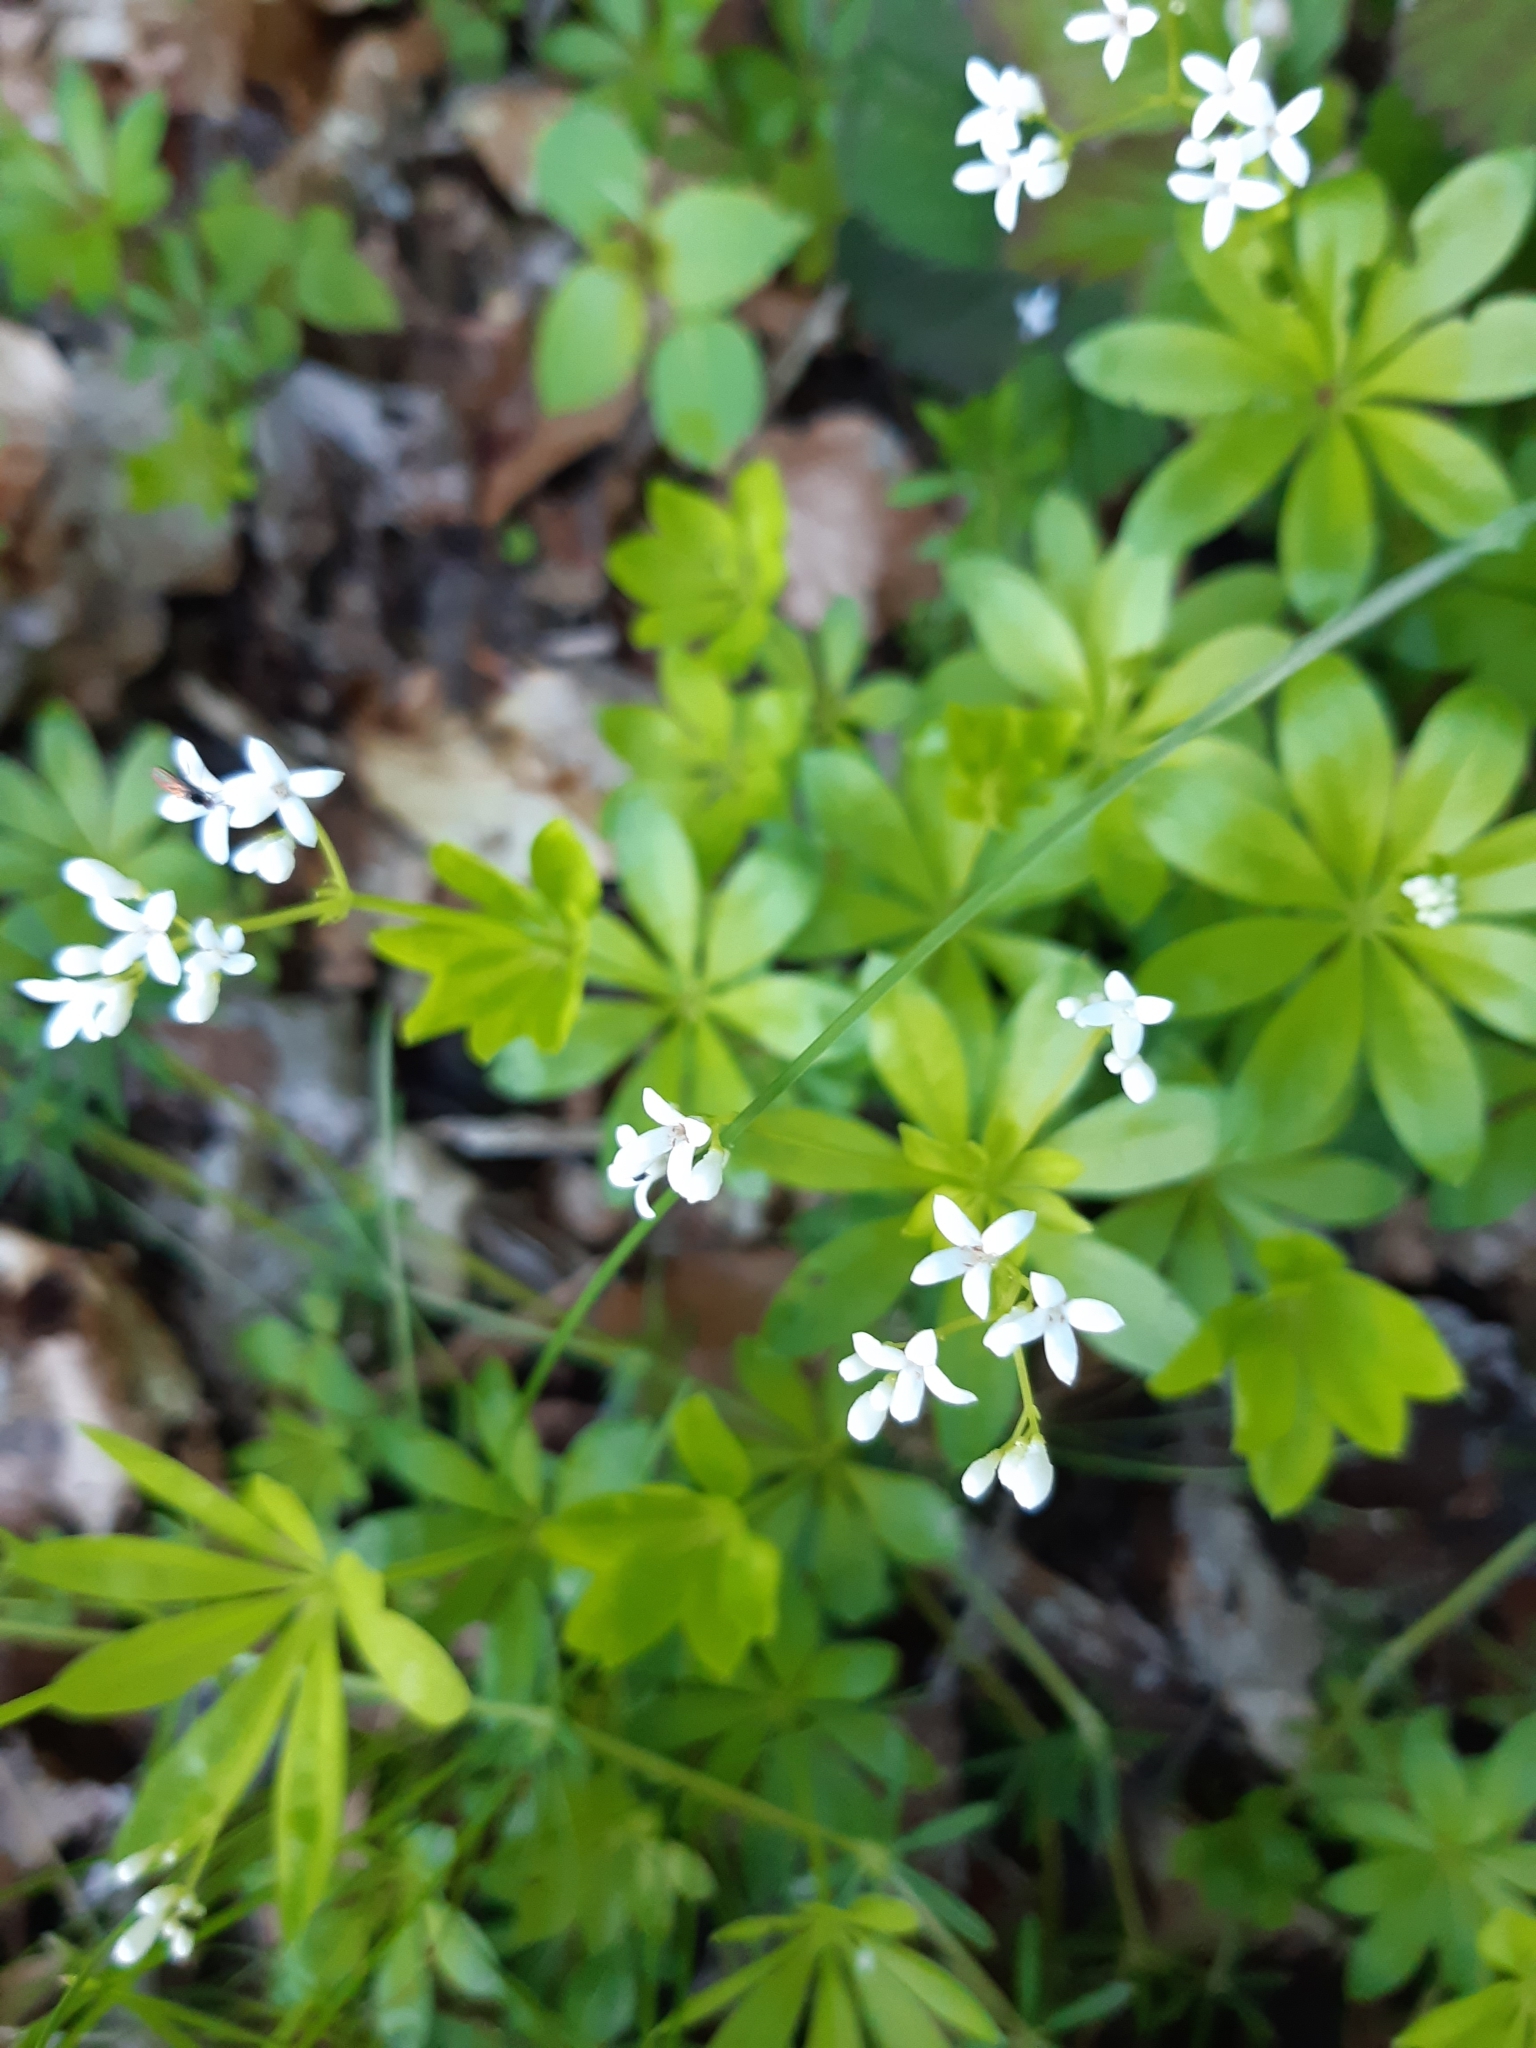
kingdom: Plantae
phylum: Tracheophyta
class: Magnoliopsida
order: Gentianales
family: Rubiaceae
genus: Galium
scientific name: Galium odoratum
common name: Sweet woodruff
